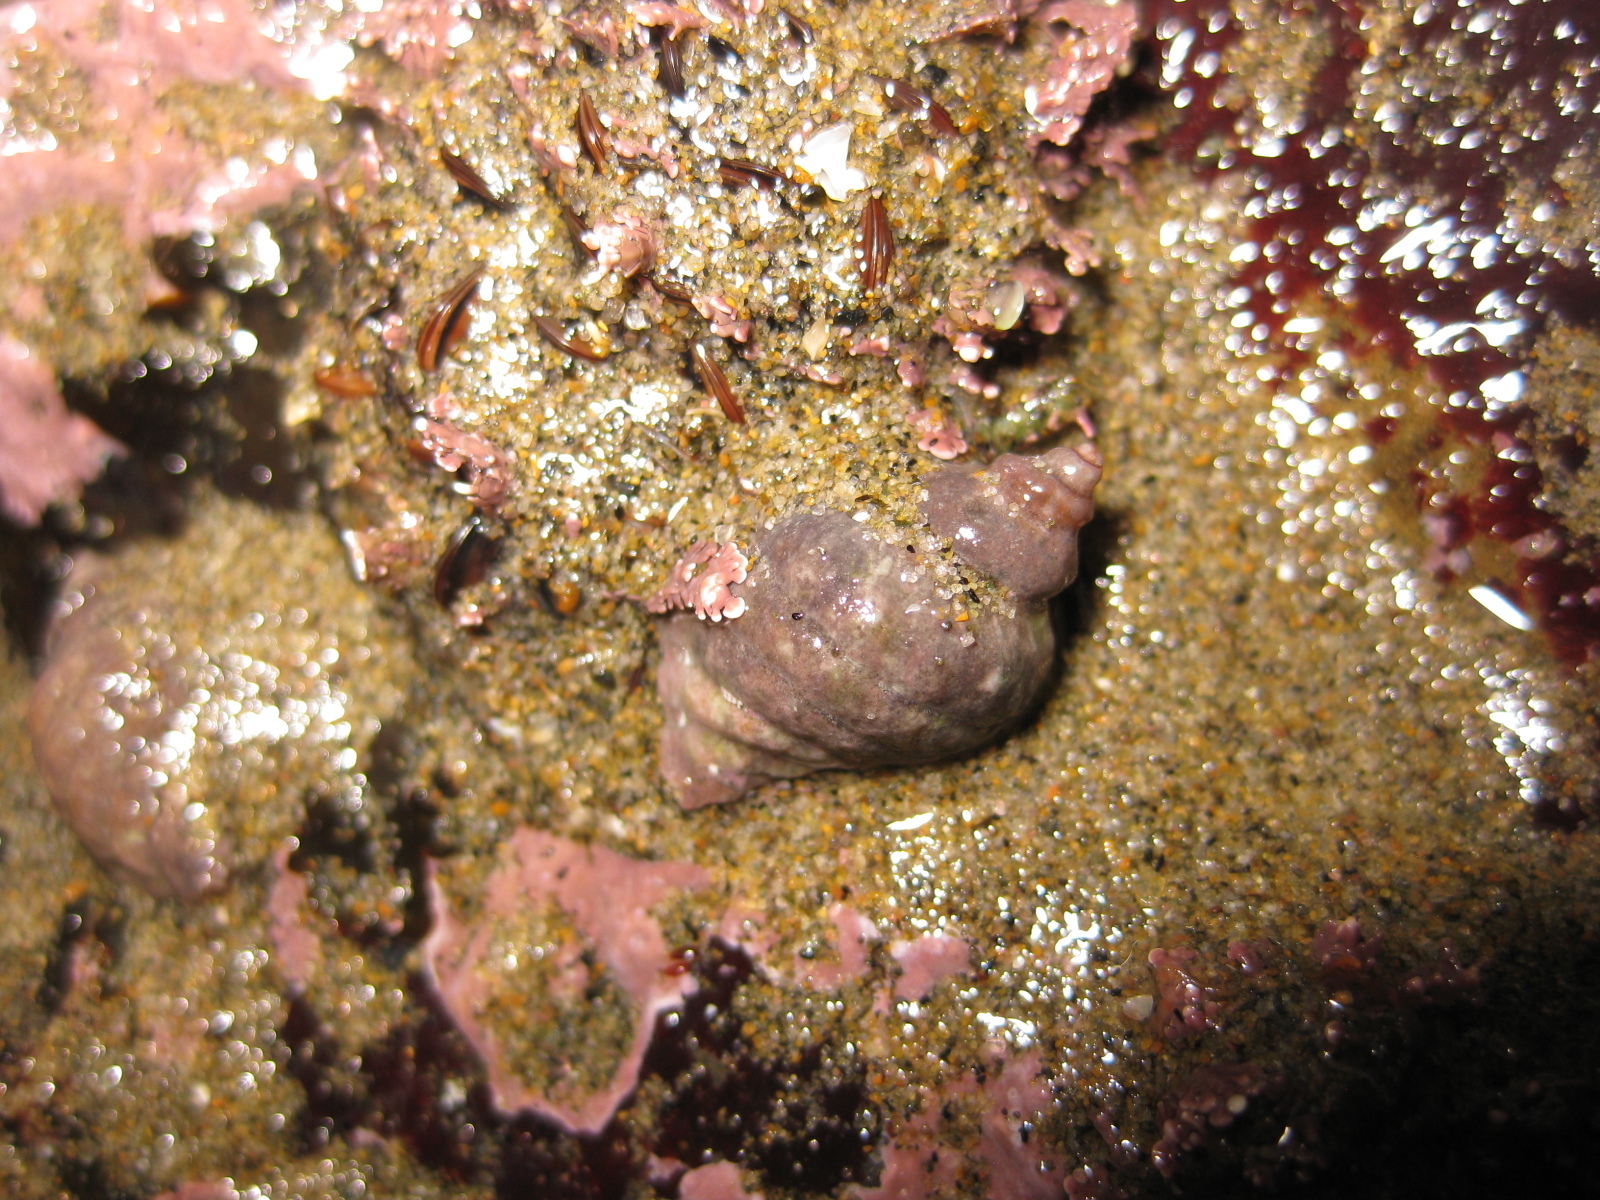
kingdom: Animalia
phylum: Mollusca
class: Gastropoda
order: Neogastropoda
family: Muricidae
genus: Paratrophon
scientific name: Paratrophon cheesemani
